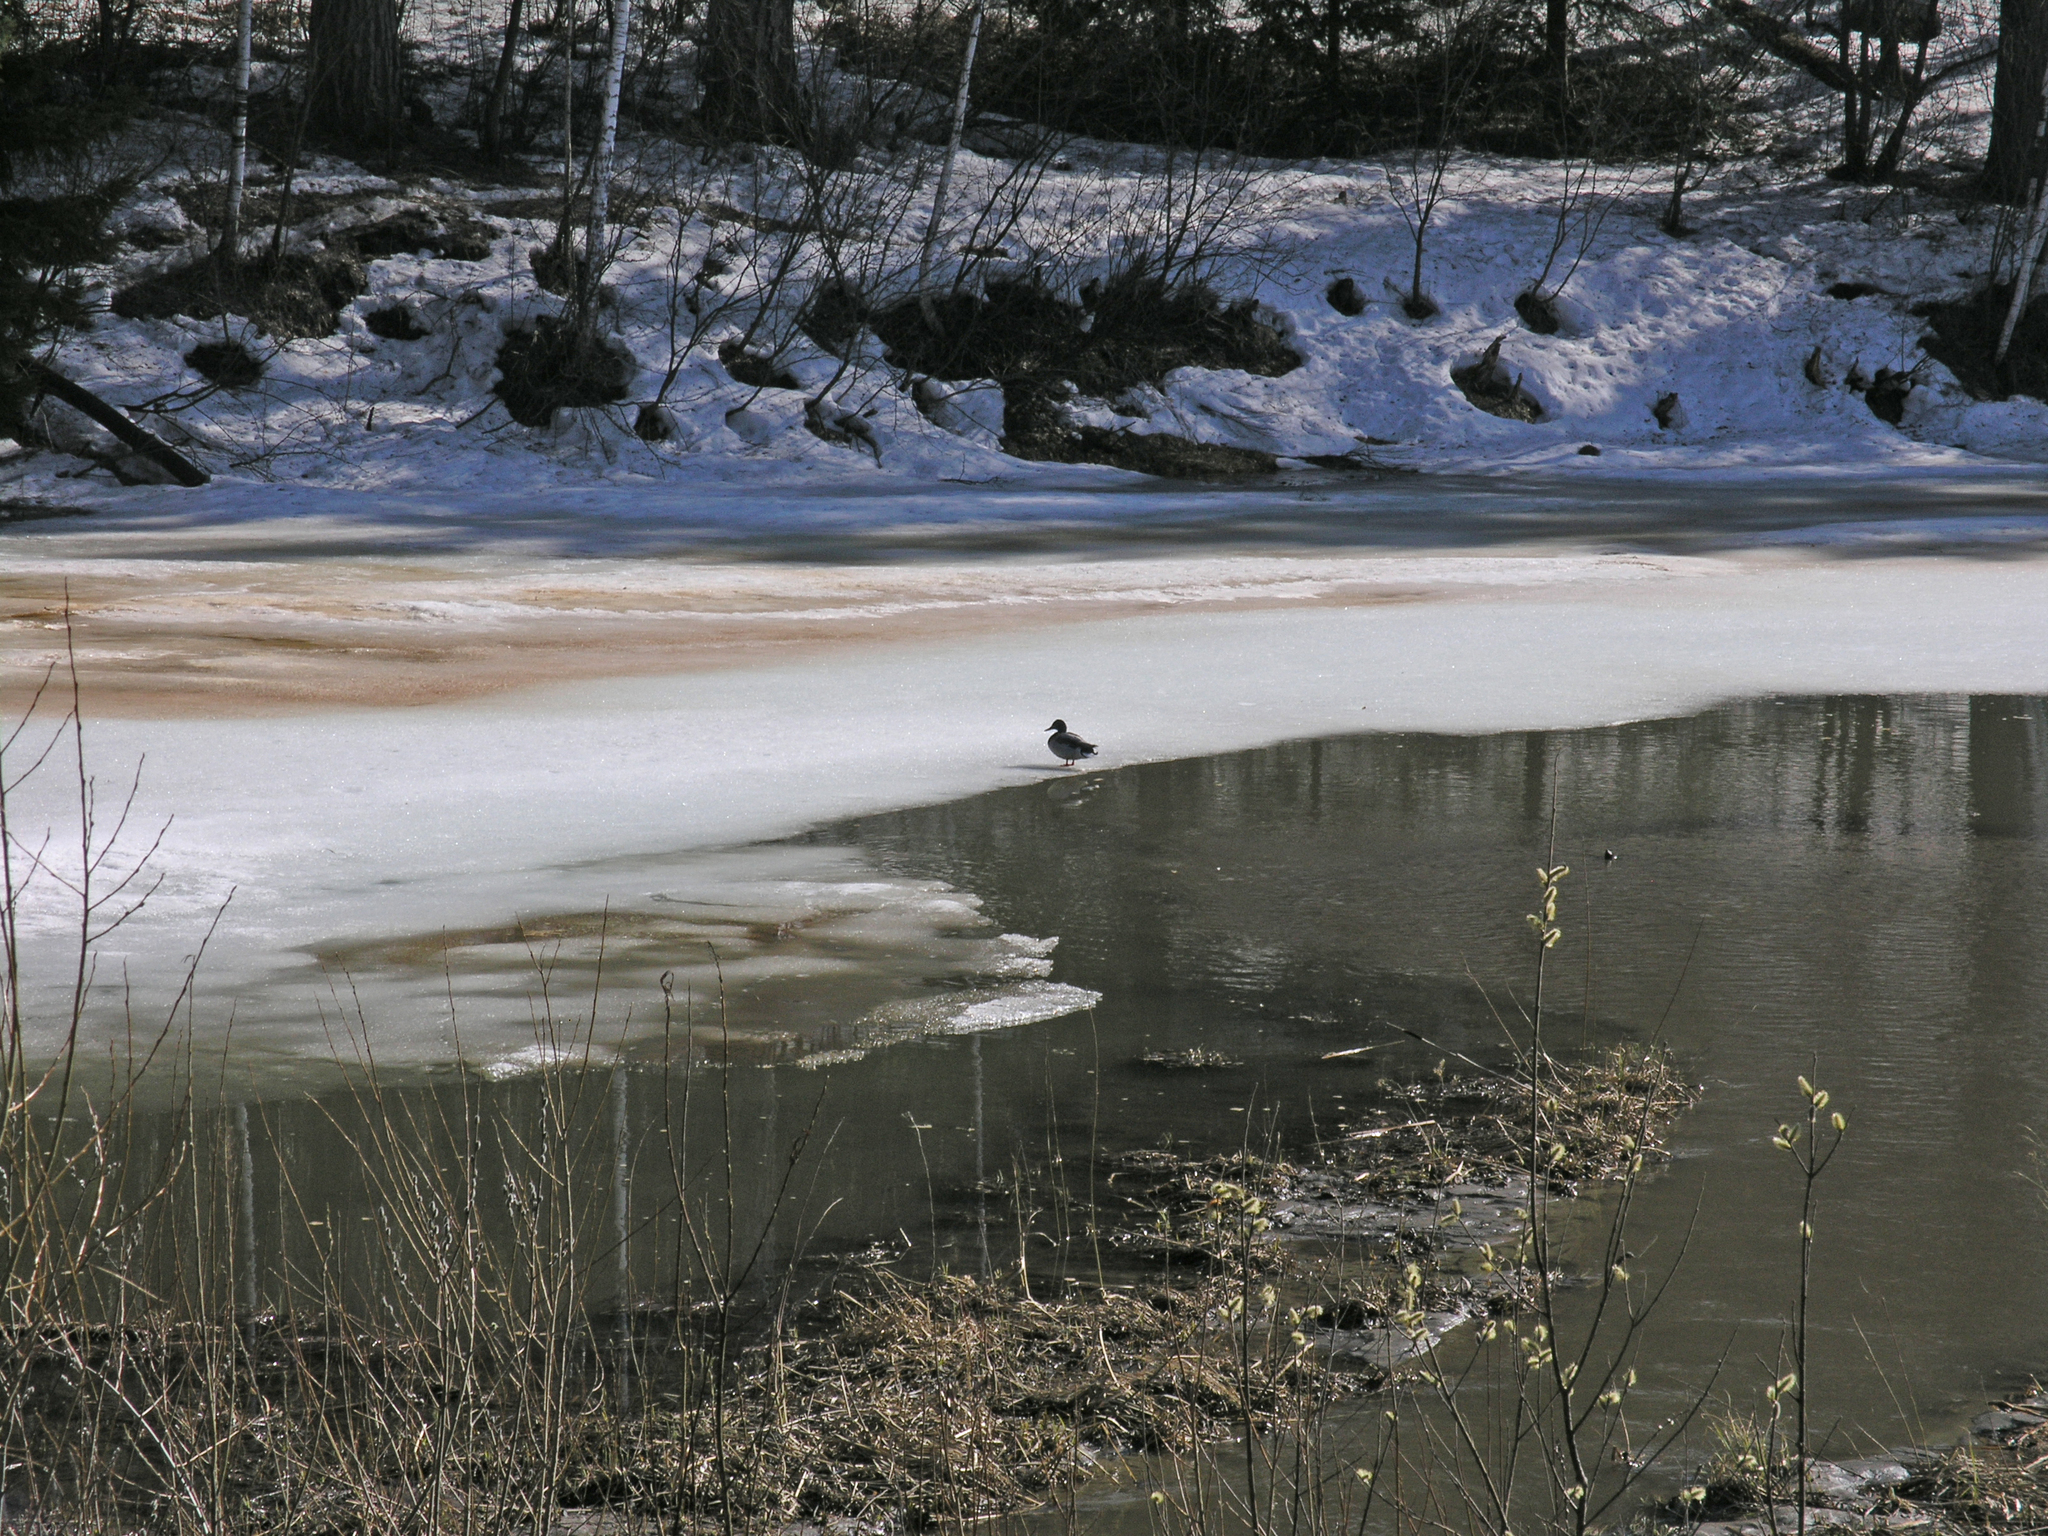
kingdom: Animalia
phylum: Chordata
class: Aves
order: Anseriformes
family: Anatidae
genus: Anas
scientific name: Anas platyrhynchos
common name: Mallard
